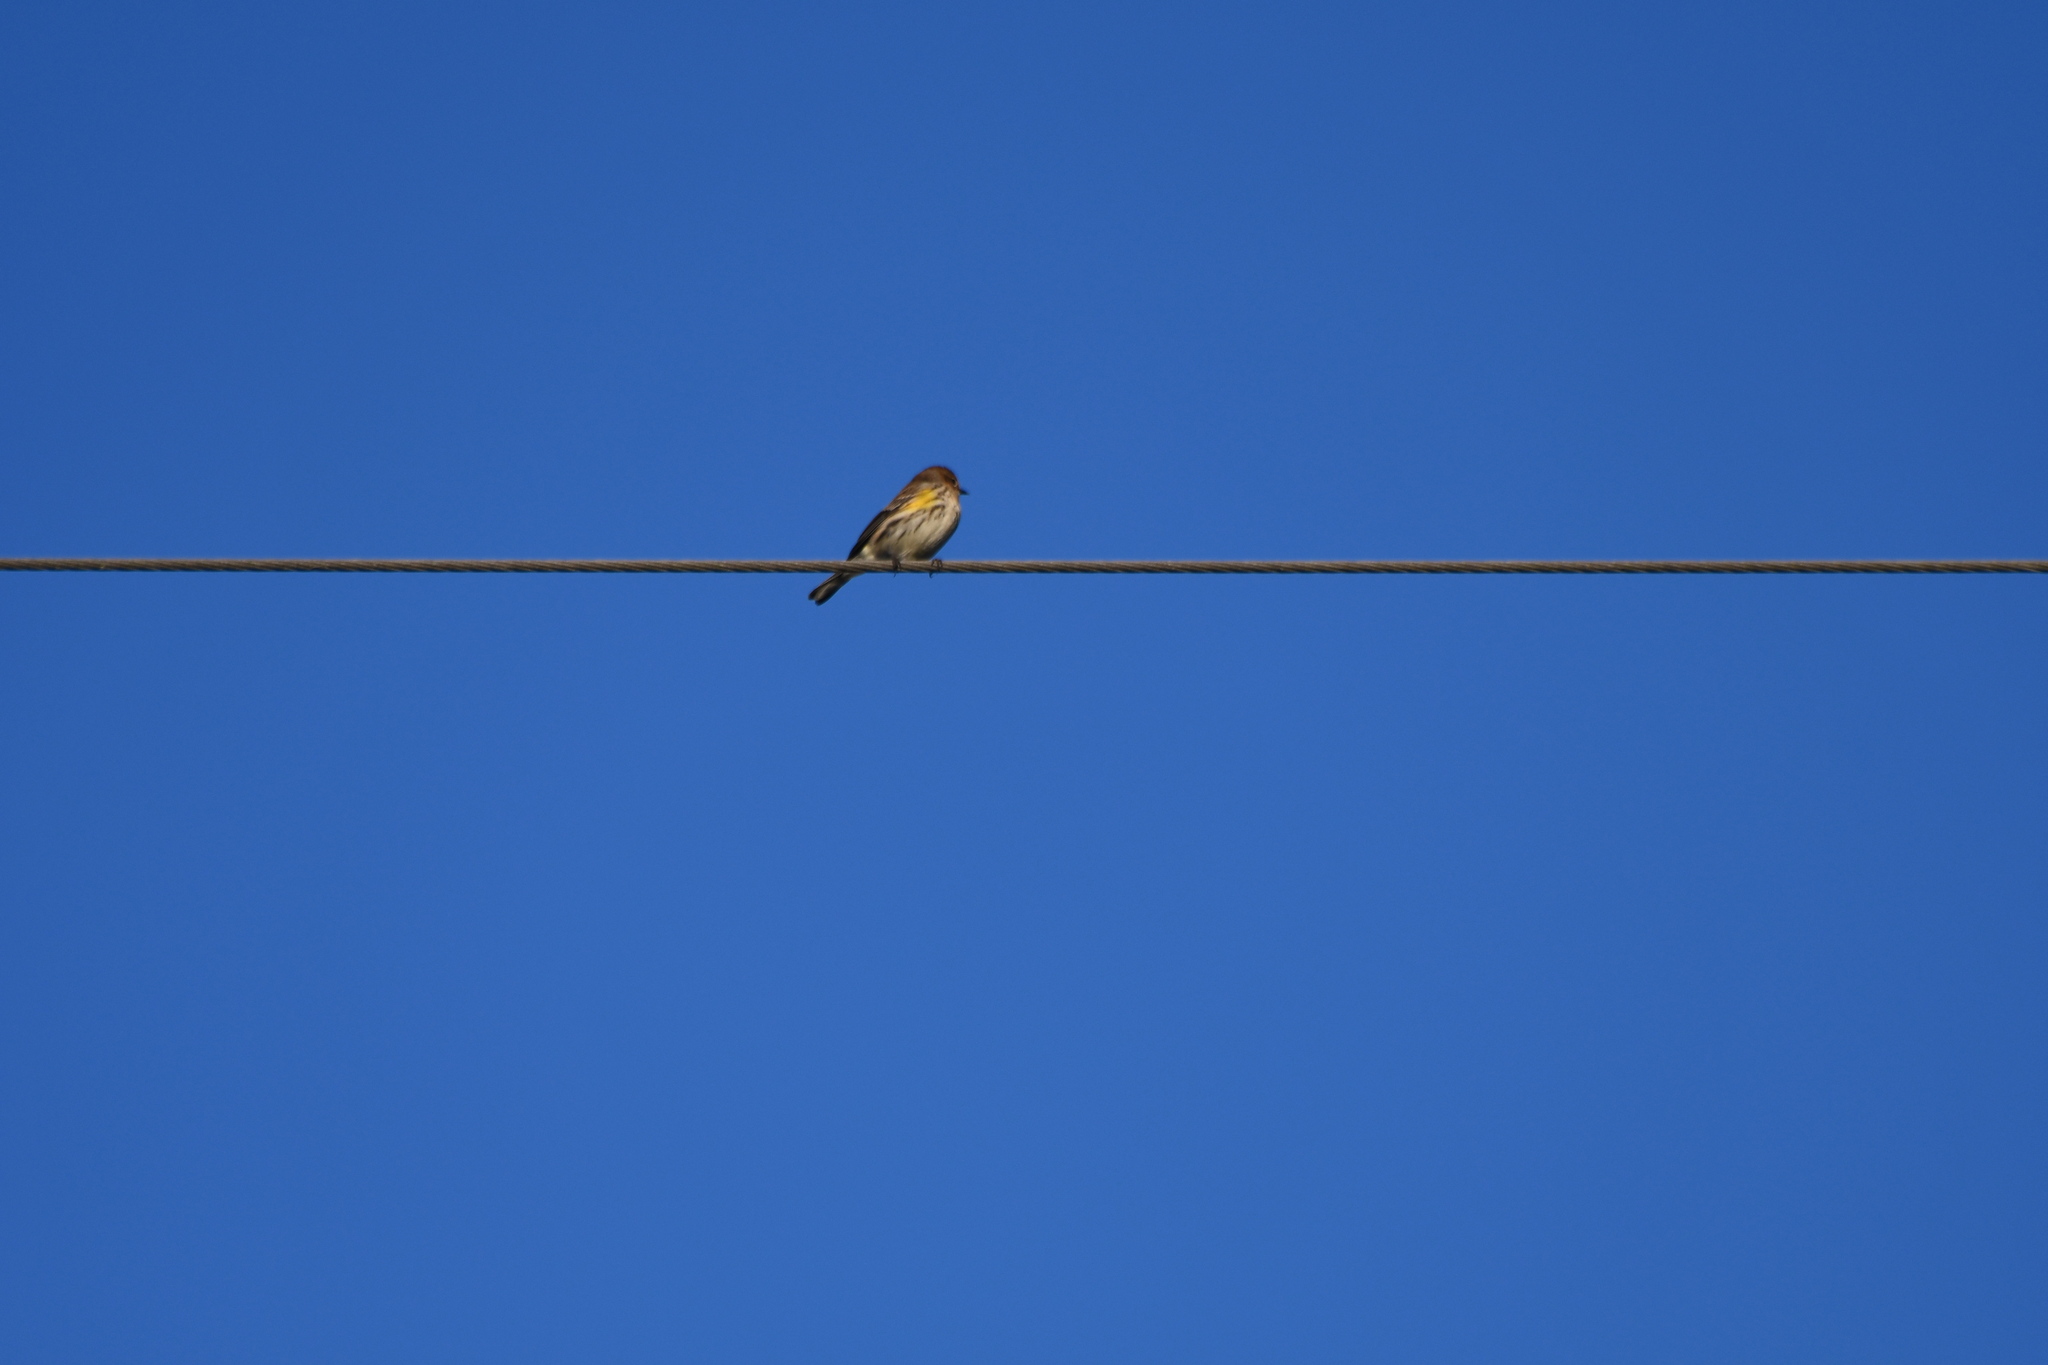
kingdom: Animalia
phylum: Chordata
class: Aves
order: Passeriformes
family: Parulidae
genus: Setophaga
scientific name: Setophaga coronata
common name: Myrtle warbler
